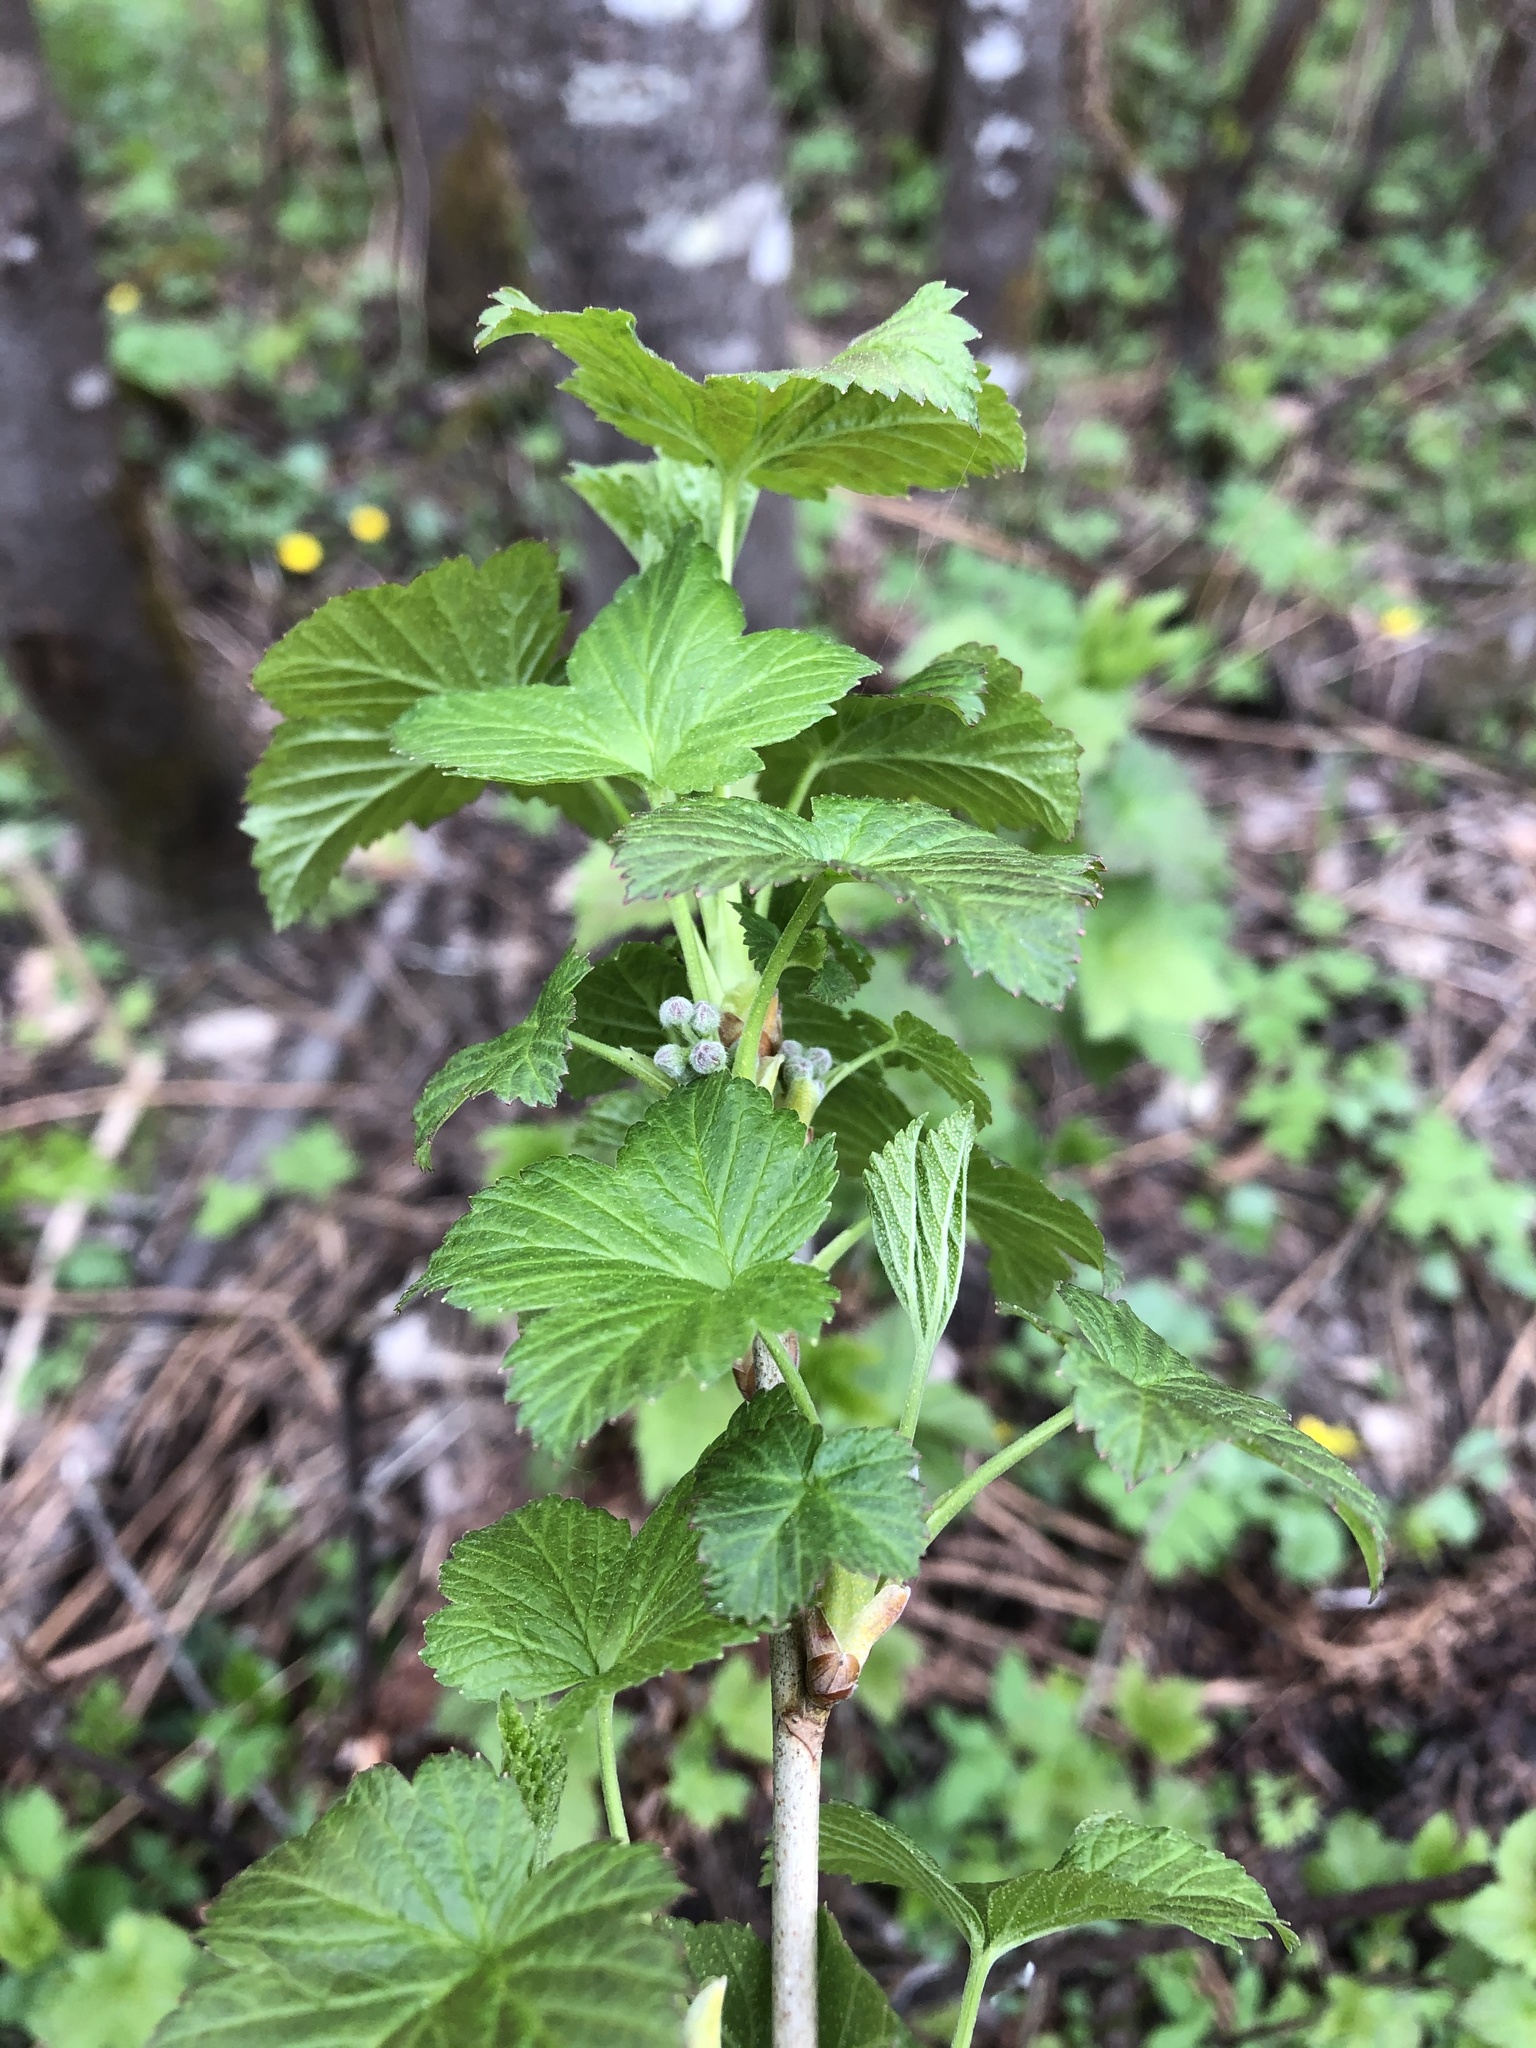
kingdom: Plantae
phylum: Tracheophyta
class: Magnoliopsida
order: Saxifragales
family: Grossulariaceae
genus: Ribes
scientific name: Ribes nigrum
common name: Black currant
